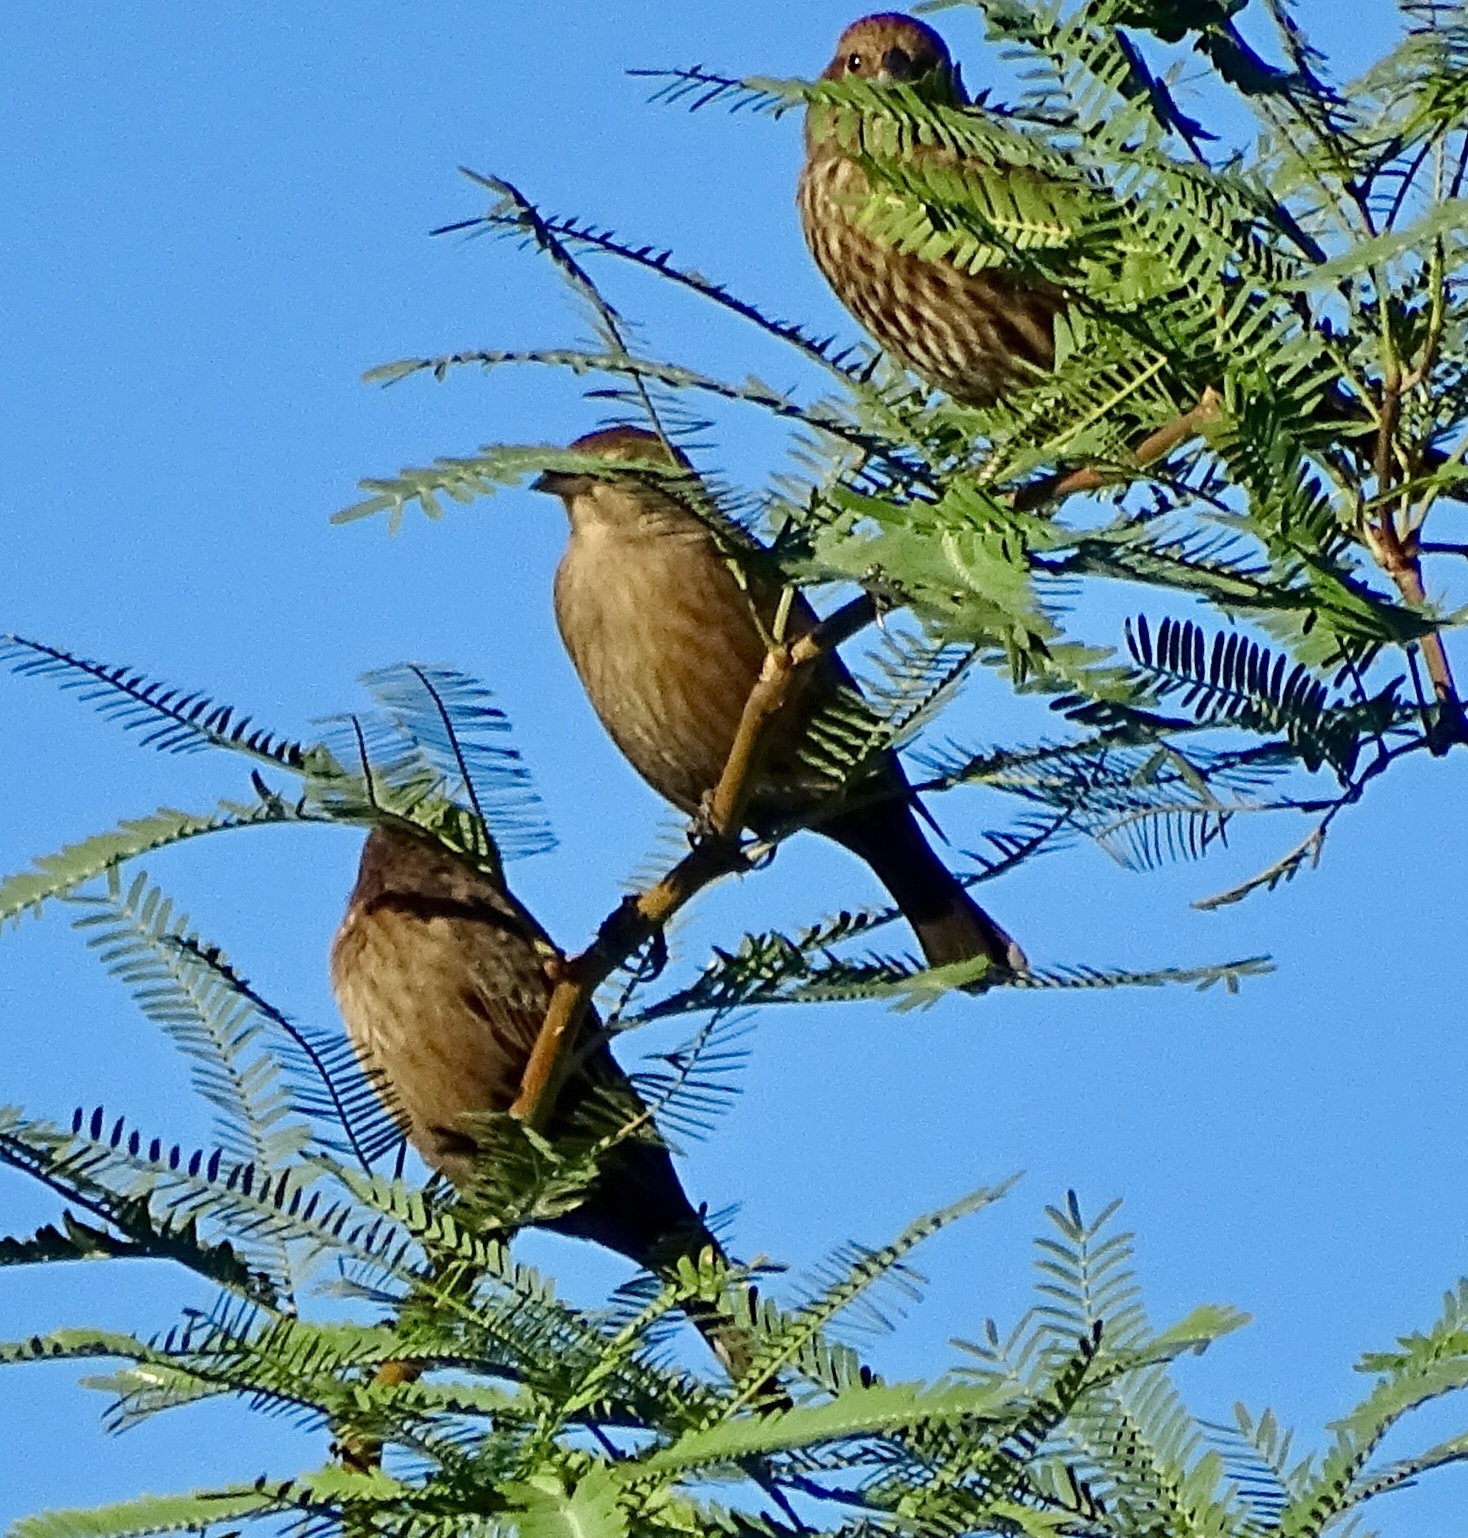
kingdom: Animalia
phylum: Chordata
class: Aves
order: Passeriformes
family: Icteridae
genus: Molothrus
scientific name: Molothrus ater
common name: Brown-headed cowbird
